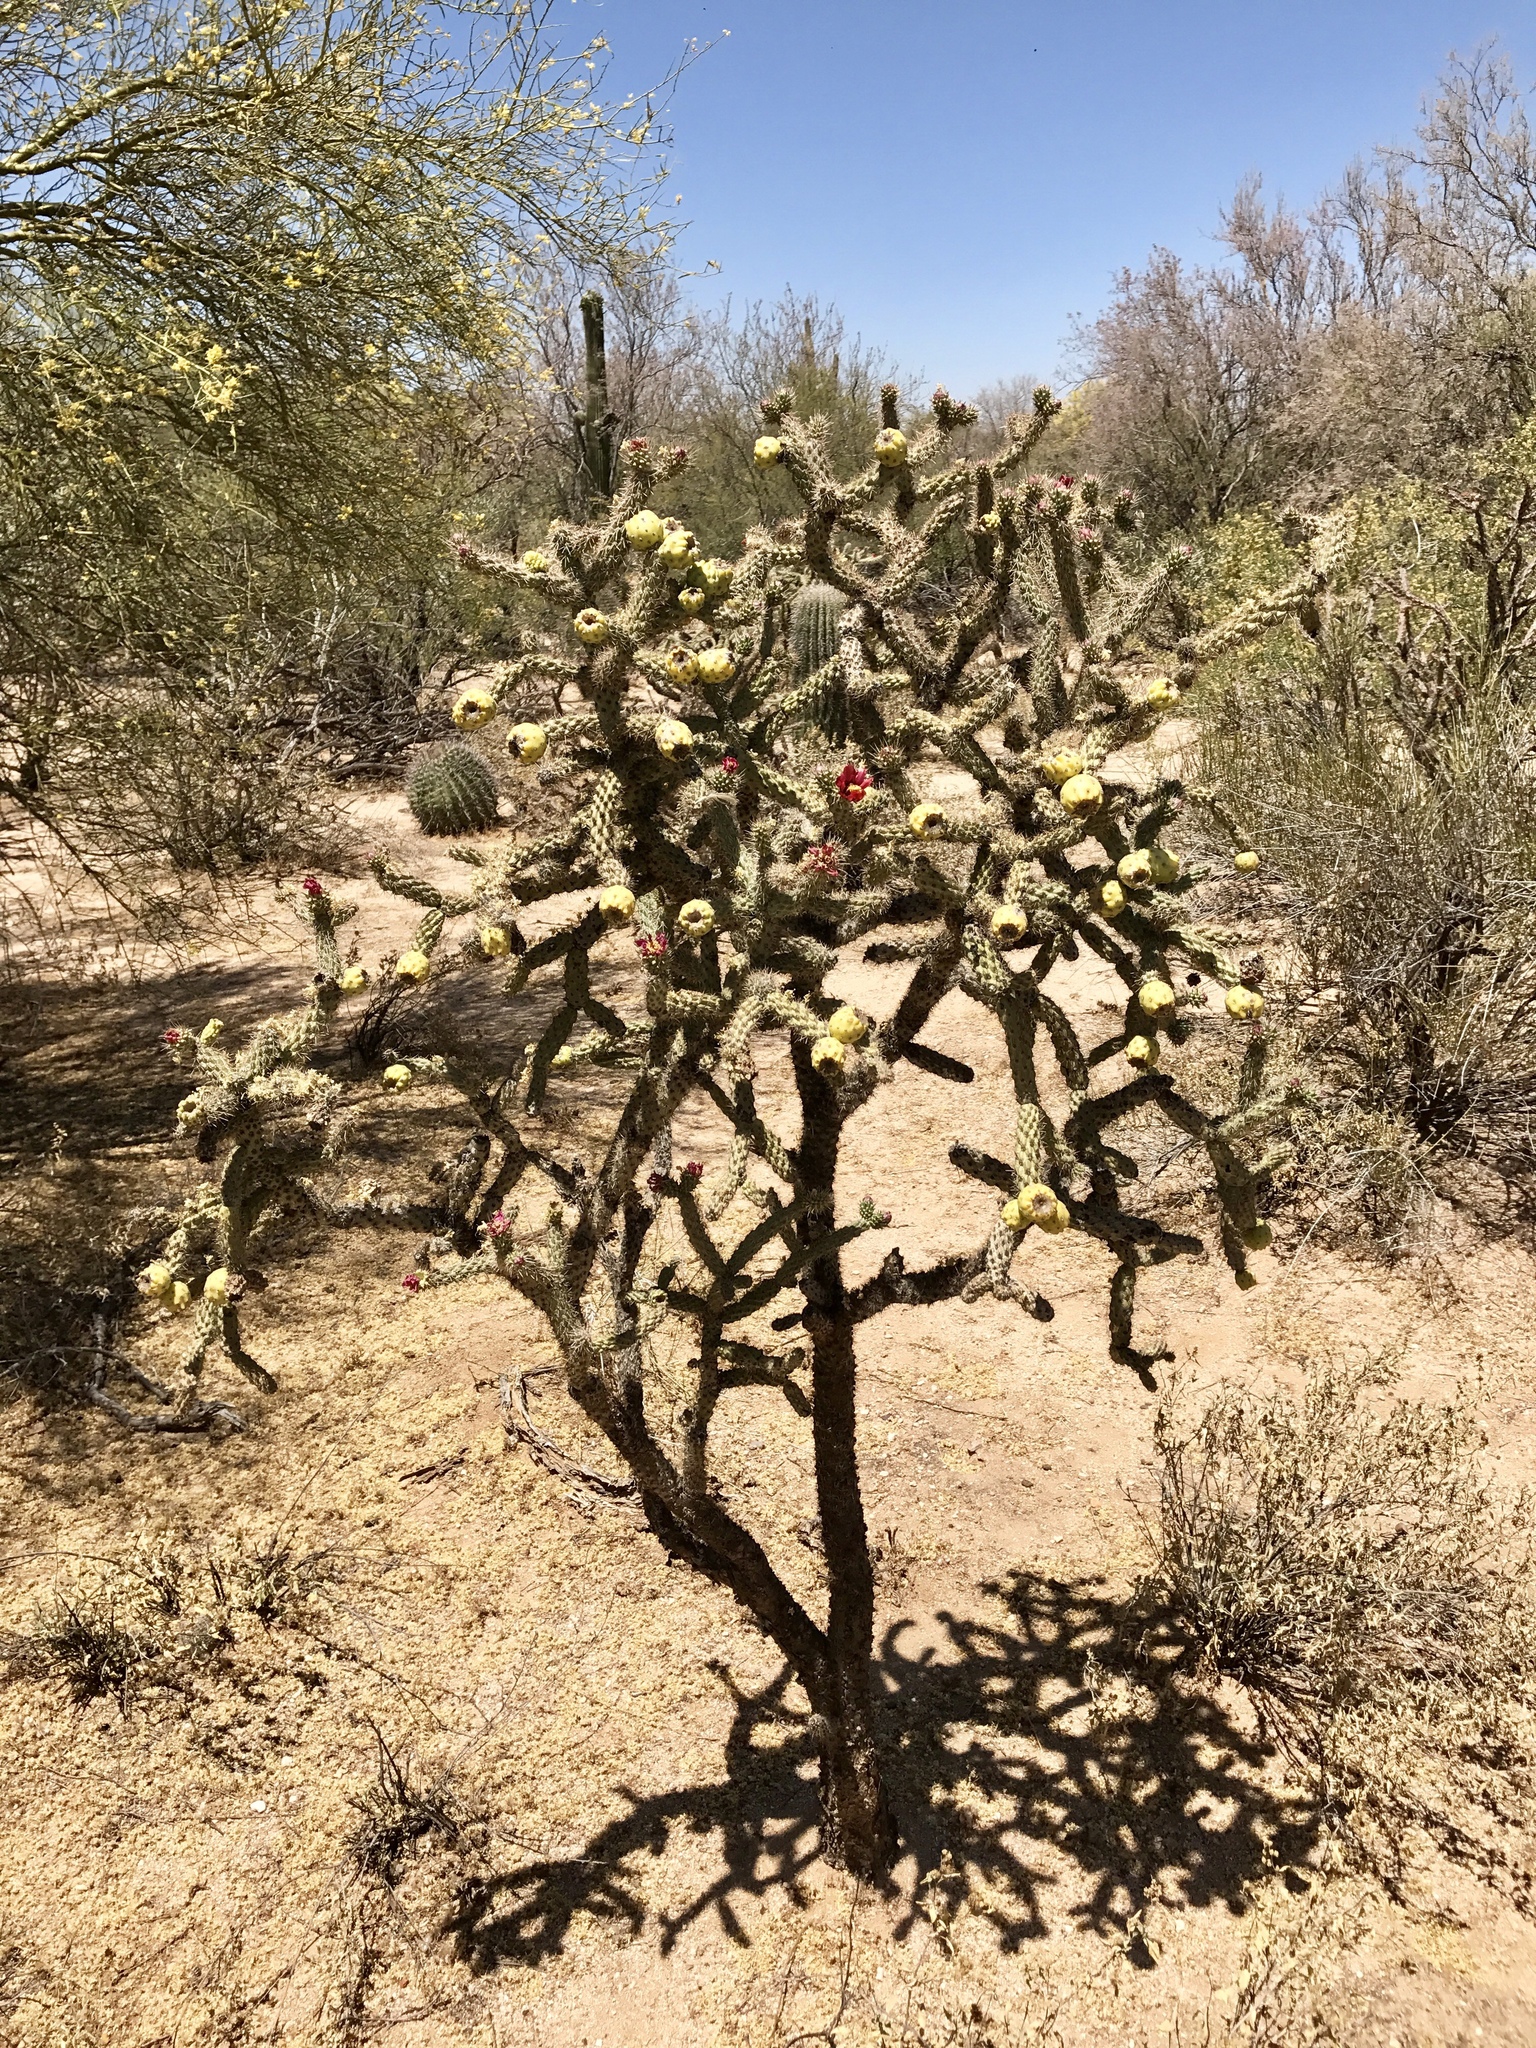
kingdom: Plantae
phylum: Tracheophyta
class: Magnoliopsida
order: Caryophyllales
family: Cactaceae
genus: Cylindropuntia
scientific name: Cylindropuntia thurberi
